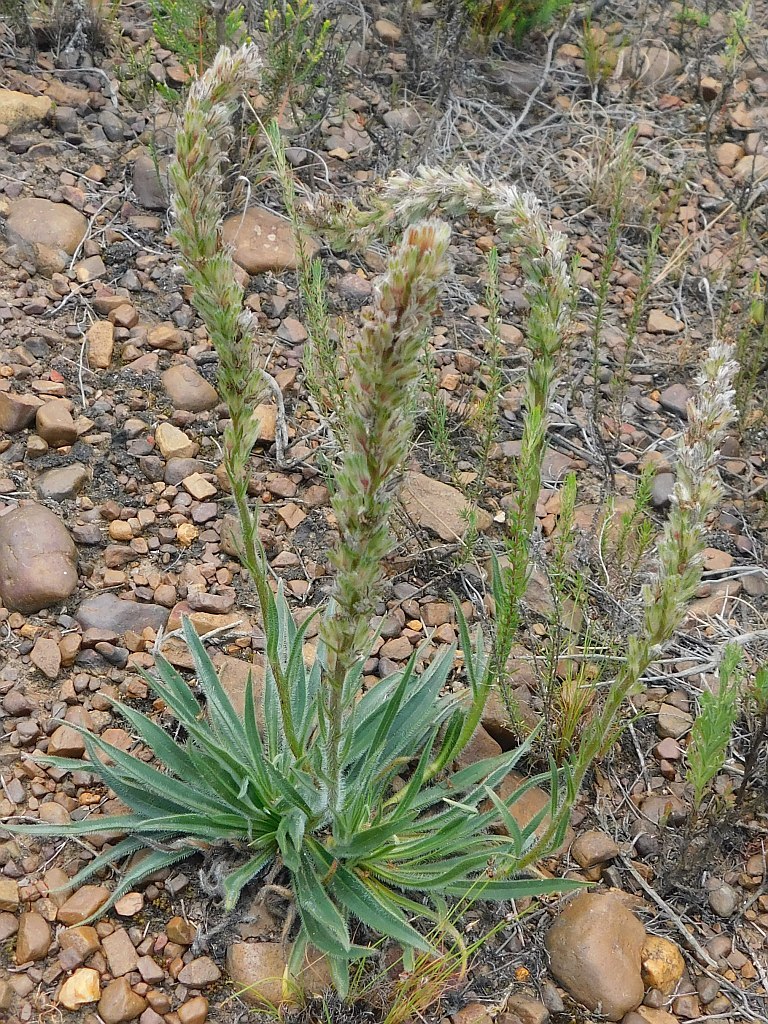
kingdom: Plantae
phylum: Tracheophyta
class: Magnoliopsida
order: Boraginales
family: Boraginaceae
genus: Lobostemon
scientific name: Lobostemon splendens
